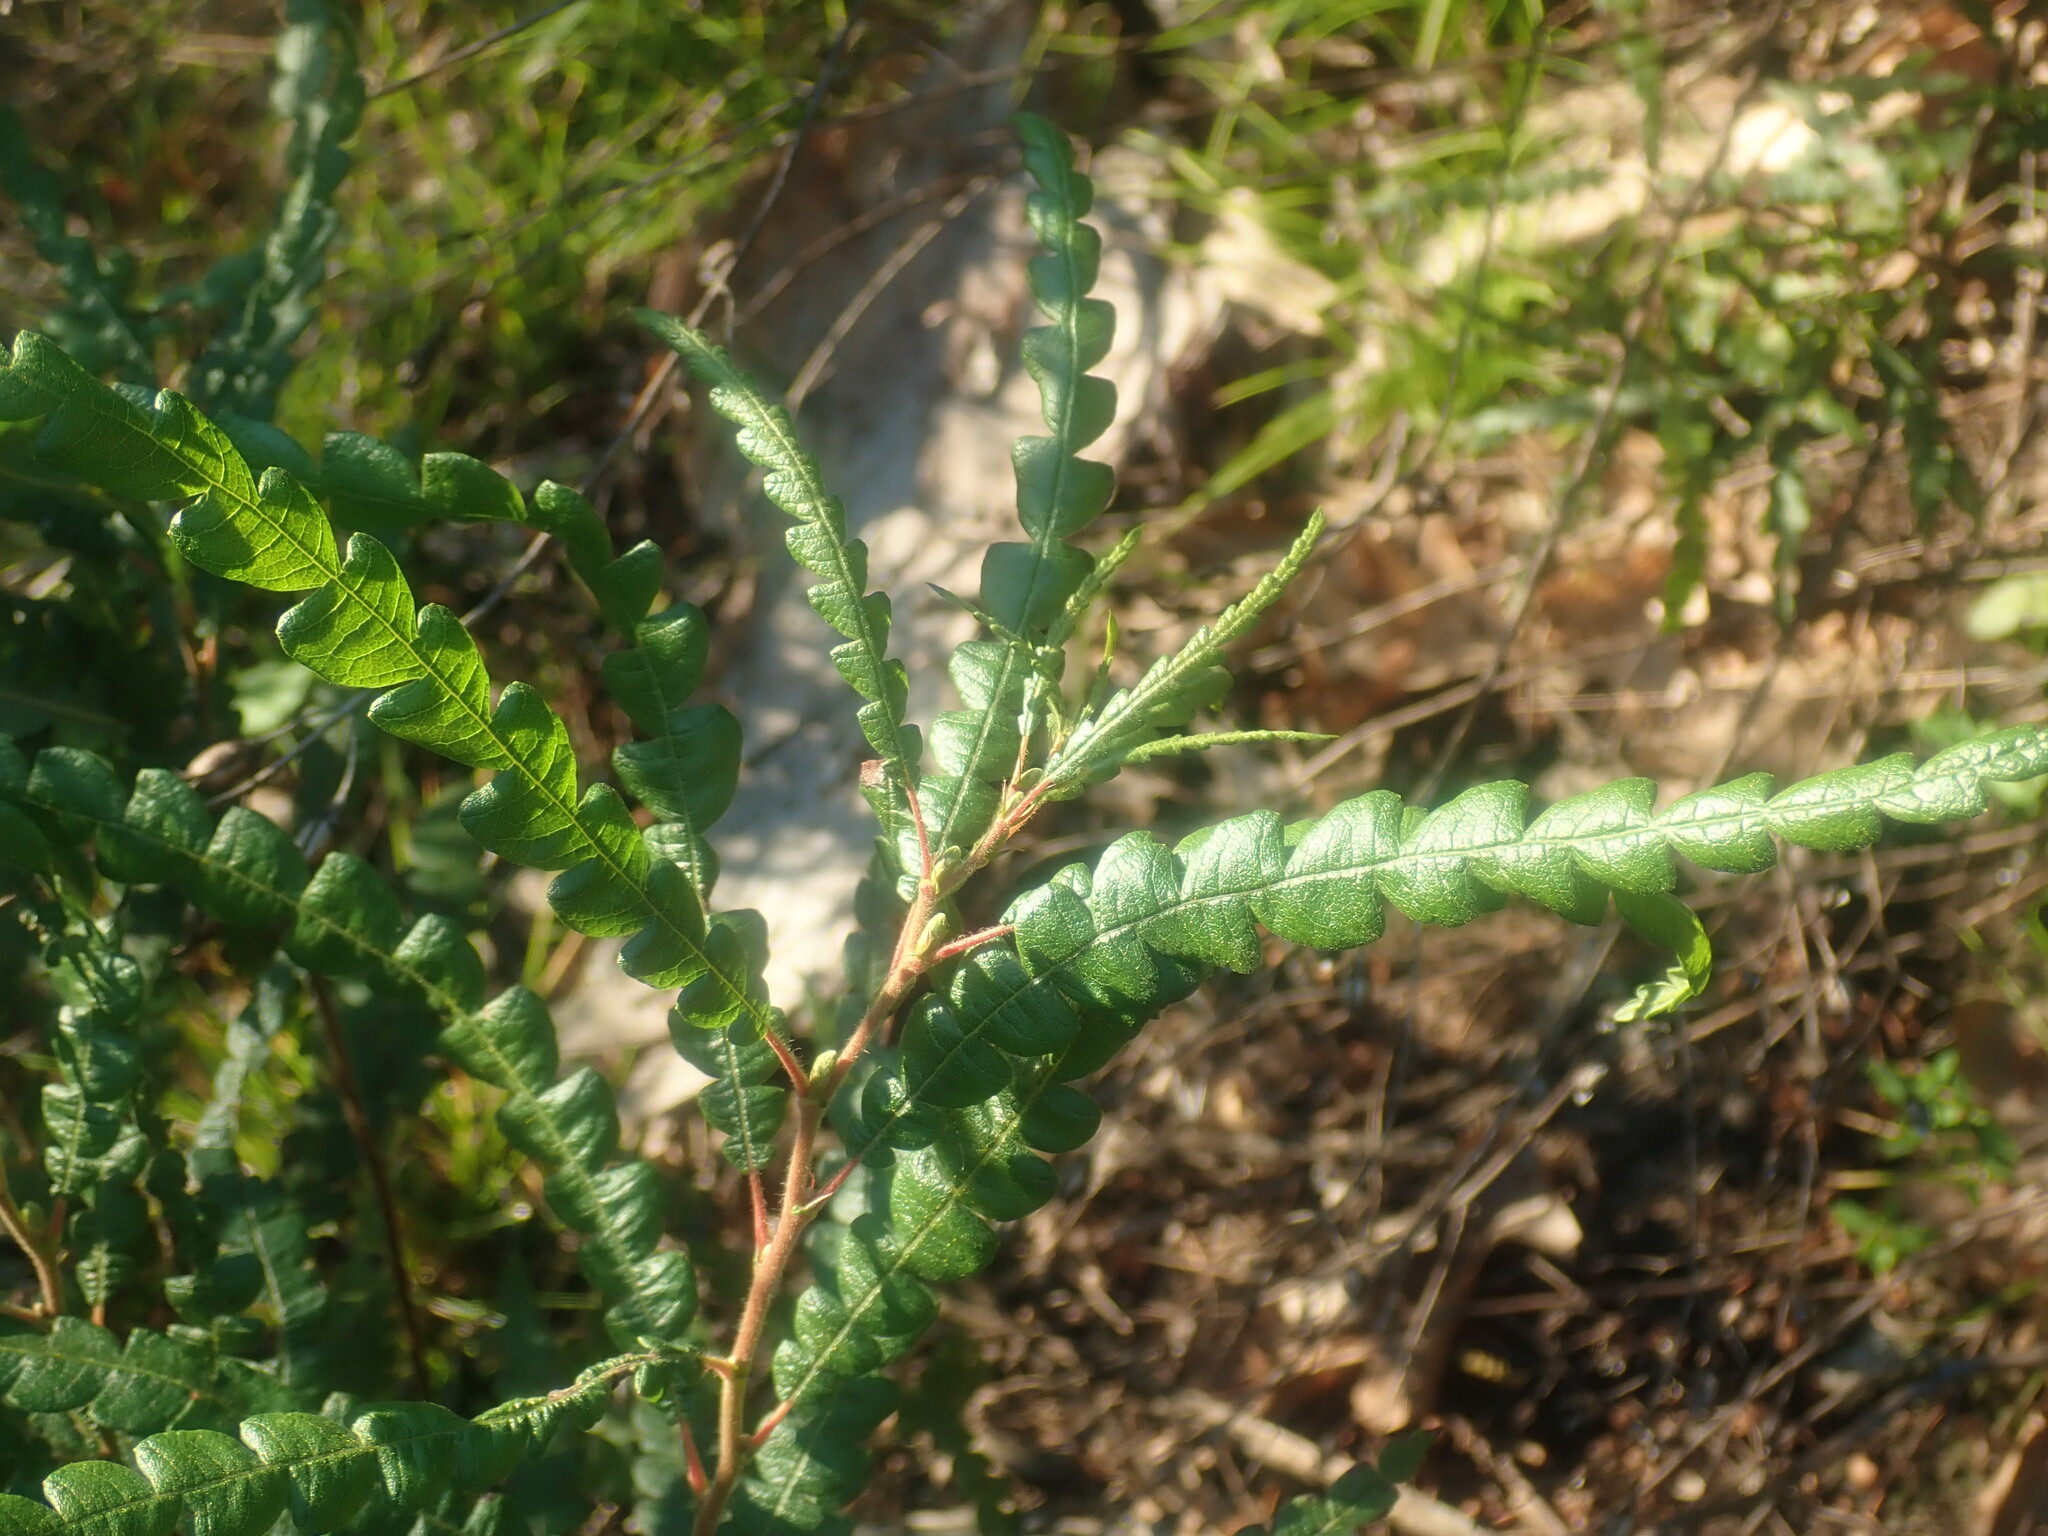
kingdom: Plantae
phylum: Tracheophyta
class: Magnoliopsida
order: Fagales
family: Myricaceae
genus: Comptonia
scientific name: Comptonia peregrina
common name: Sweet-fern
